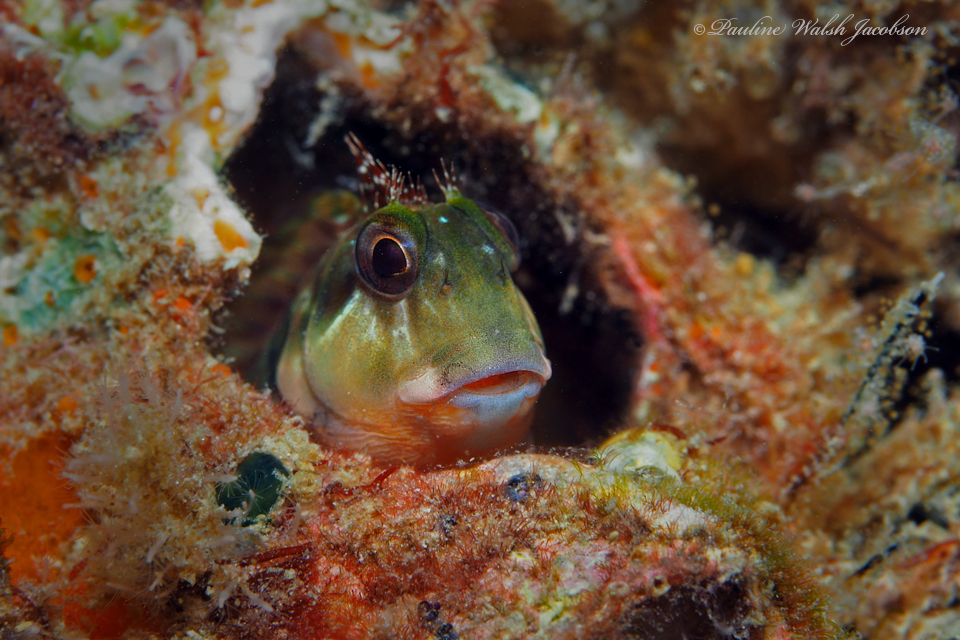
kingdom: Animalia
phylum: Chordata
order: Perciformes
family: Blenniidae
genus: Scartella
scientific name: Scartella cristata
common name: Molly miller
